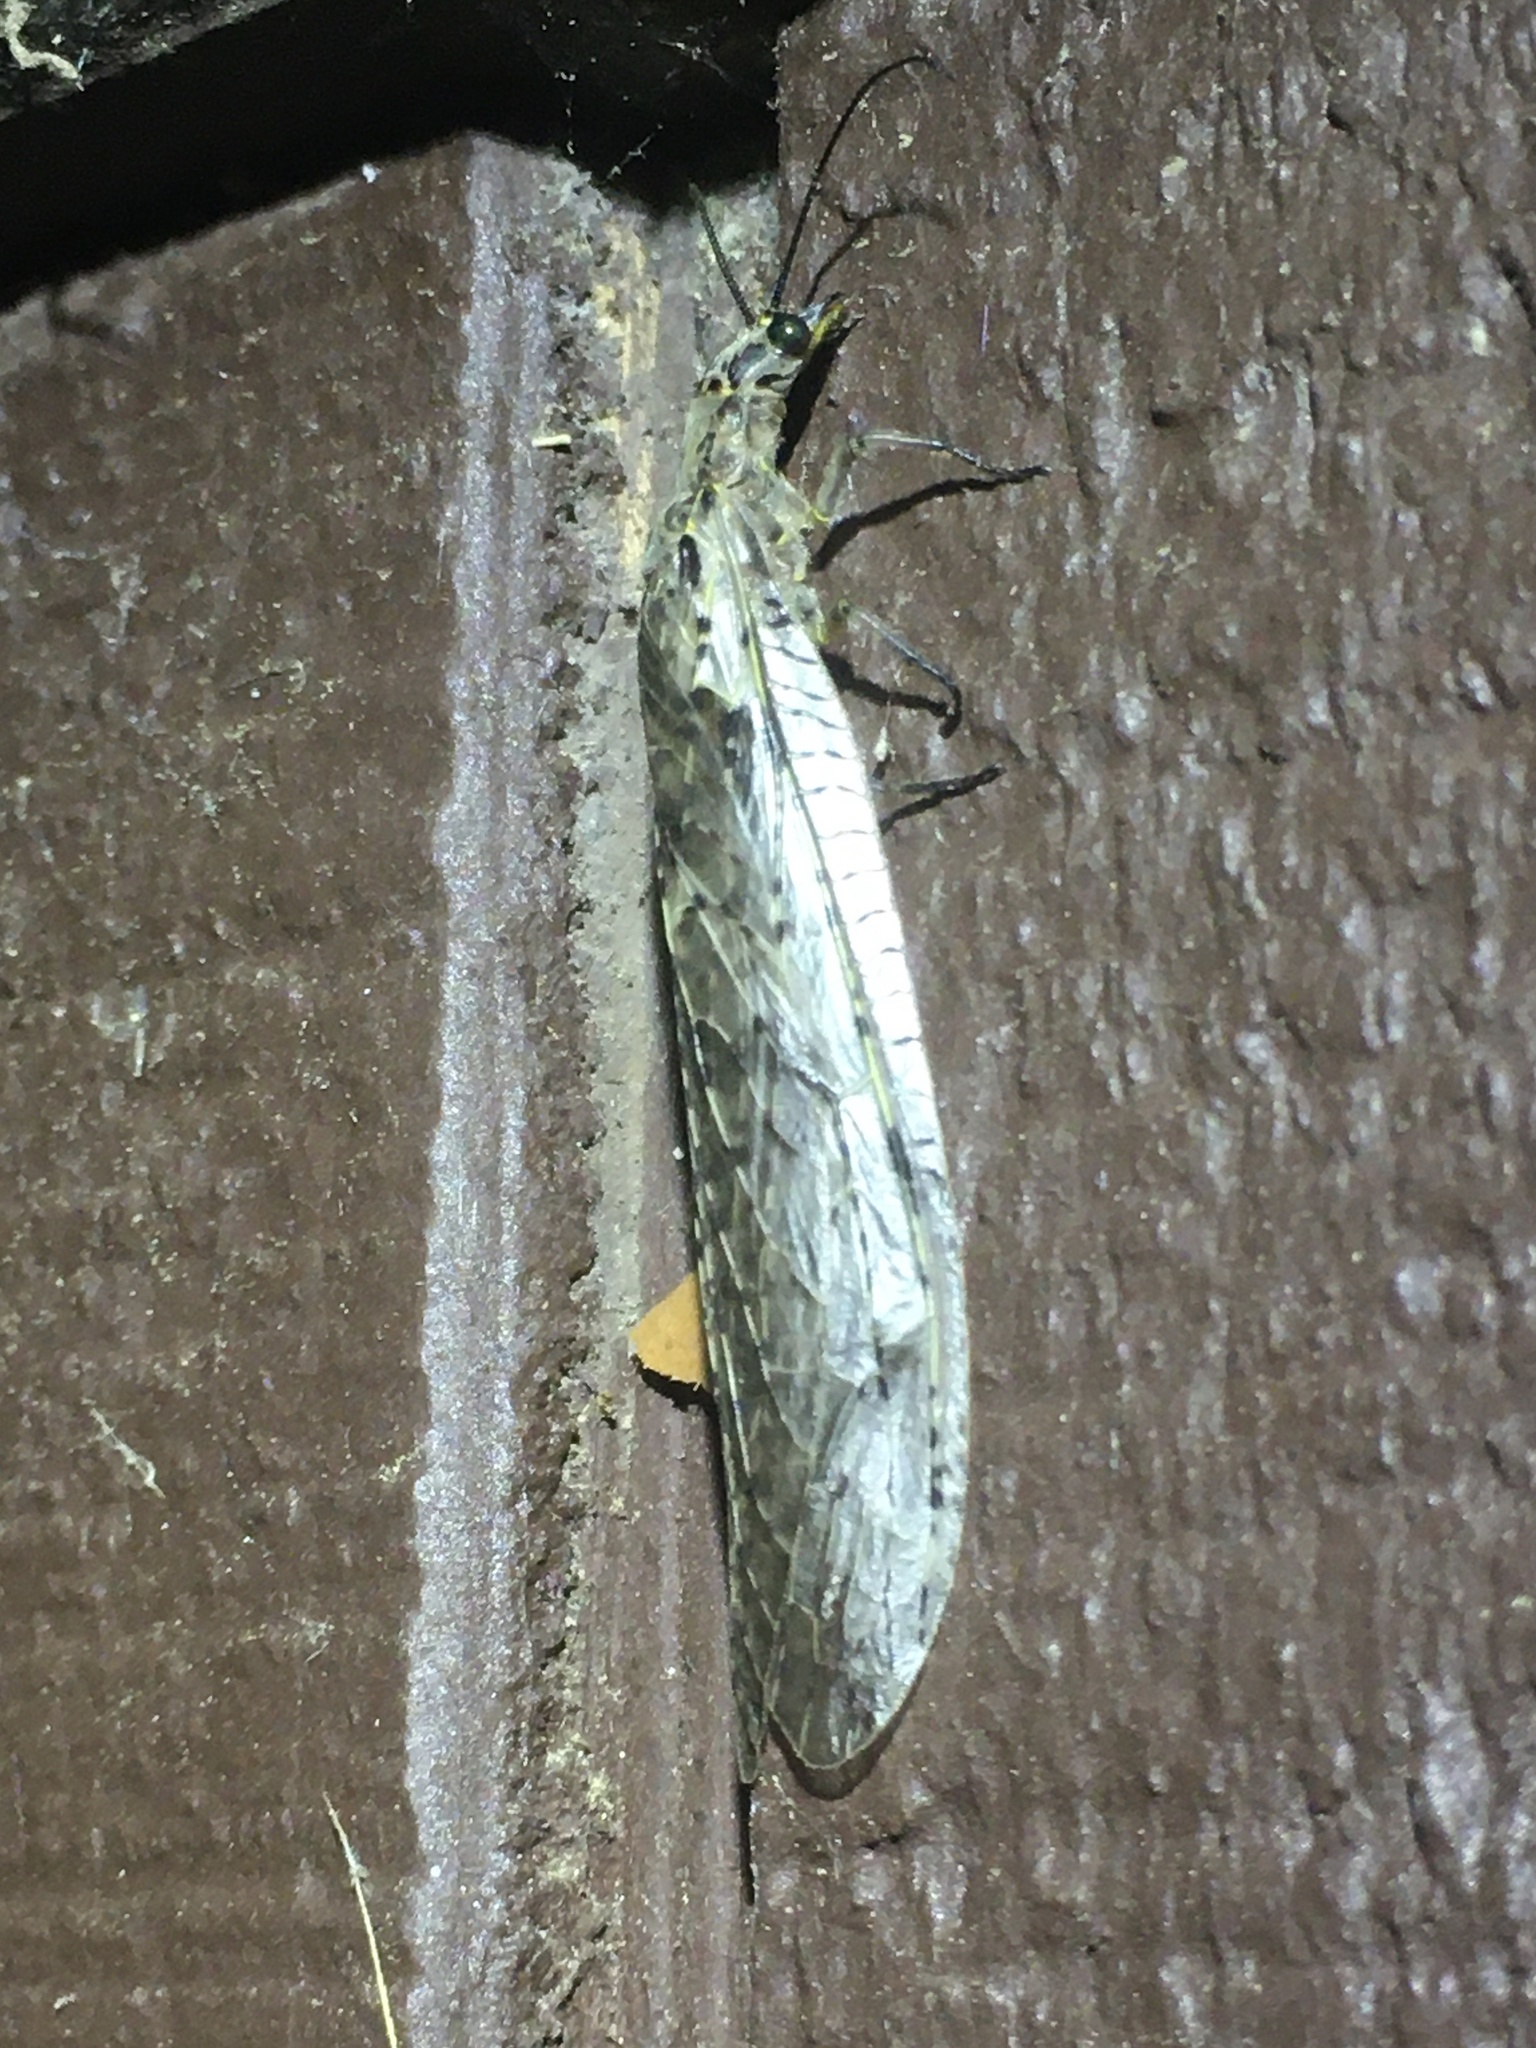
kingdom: Animalia
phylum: Arthropoda
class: Insecta
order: Megaloptera
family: Corydalidae
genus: Chauliodes
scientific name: Chauliodes rastricornis
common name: Spring fishfly
